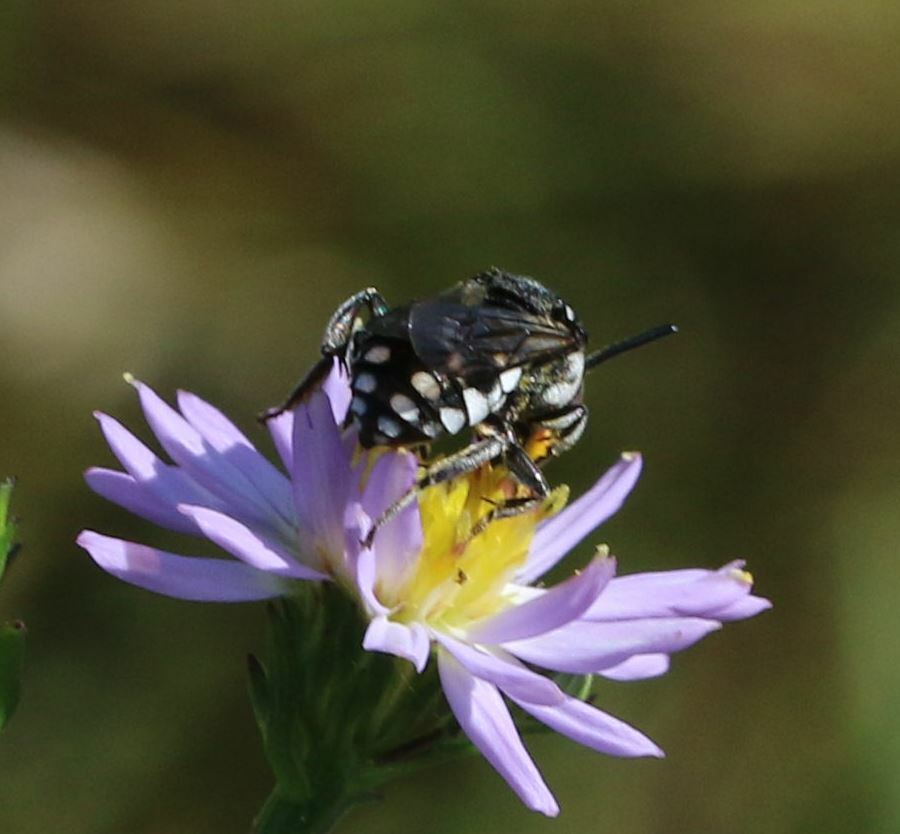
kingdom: Animalia
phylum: Arthropoda
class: Insecta
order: Hymenoptera
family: Apidae
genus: Epeolus
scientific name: Epeolus fallax
